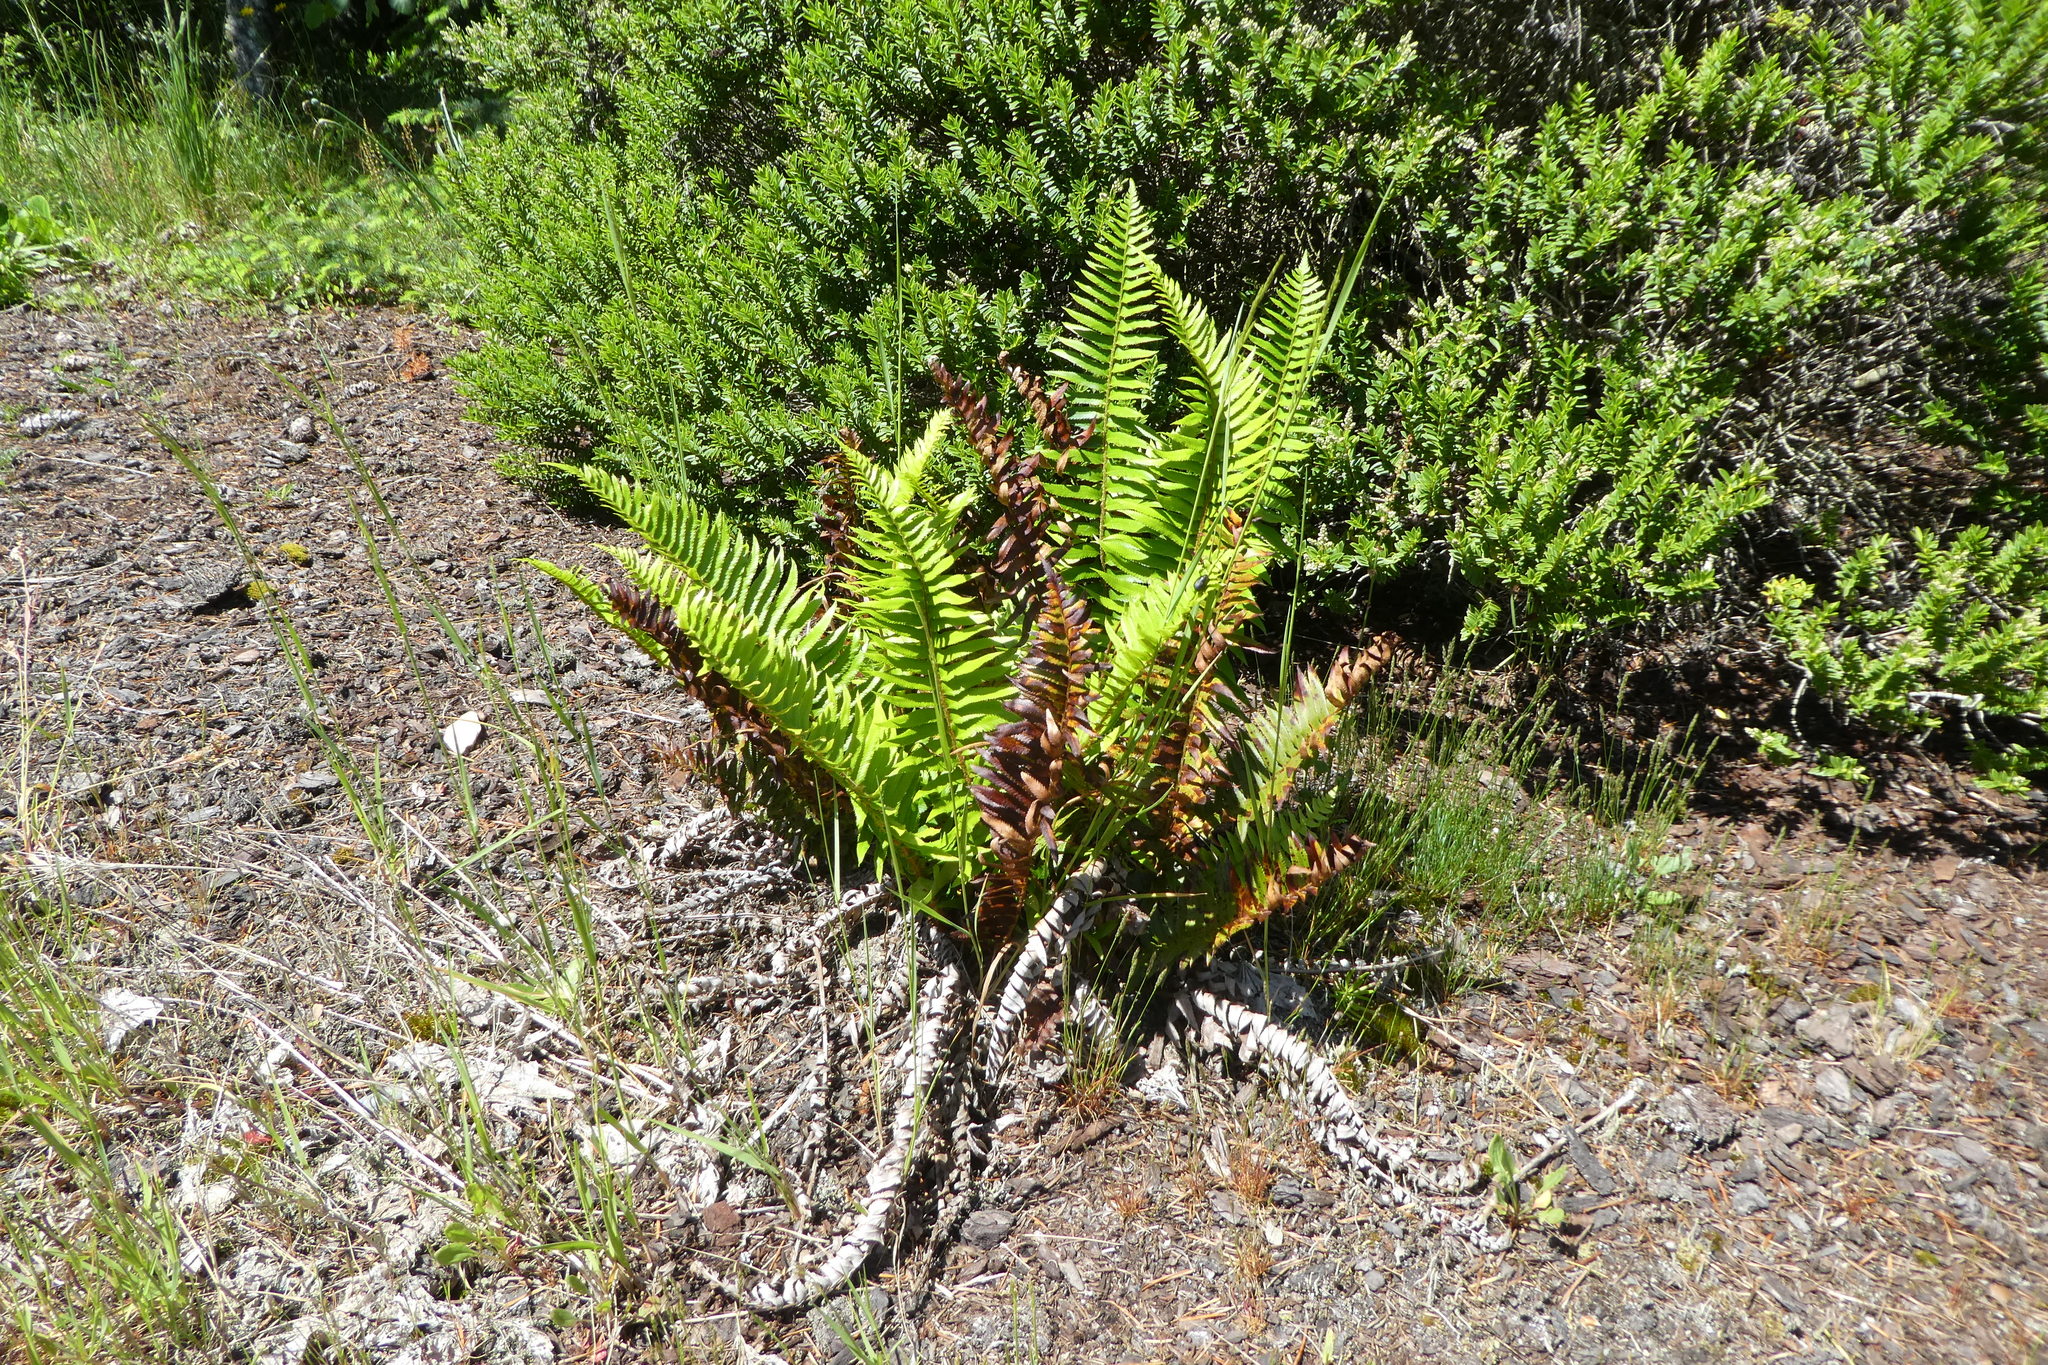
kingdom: Plantae
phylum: Tracheophyta
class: Polypodiopsida
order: Polypodiales
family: Dryopteridaceae
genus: Polystichum
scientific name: Polystichum munitum
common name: Western sword-fern
